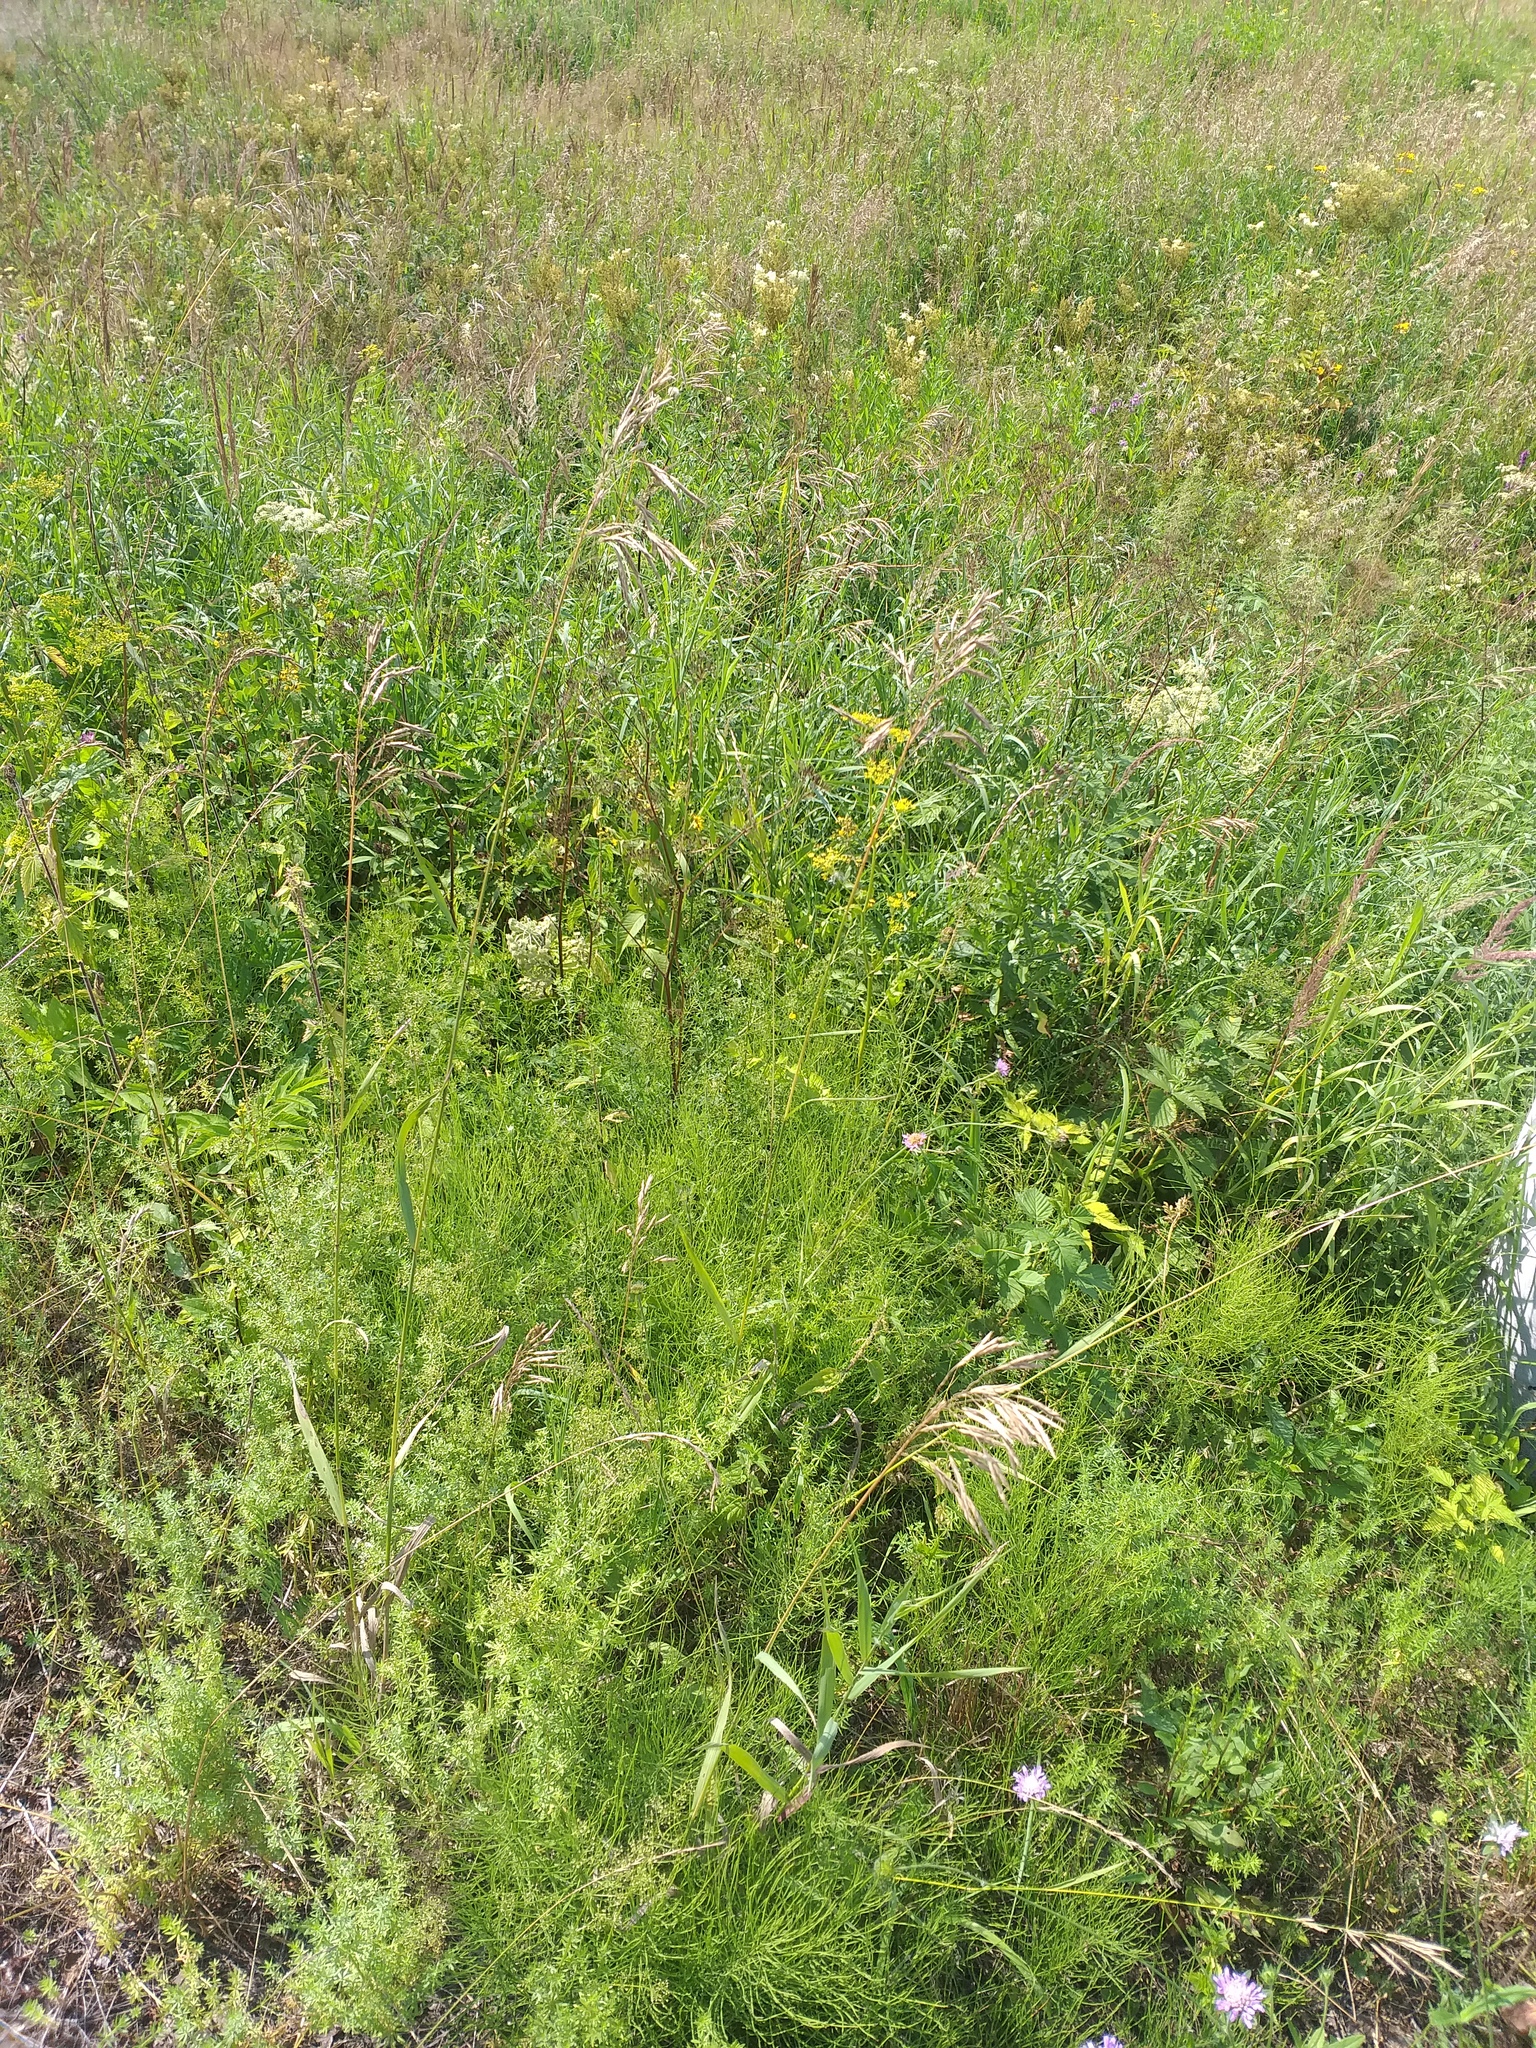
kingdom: Plantae
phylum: Tracheophyta
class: Liliopsida
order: Poales
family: Poaceae
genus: Bromus
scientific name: Bromus inermis
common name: Smooth brome
